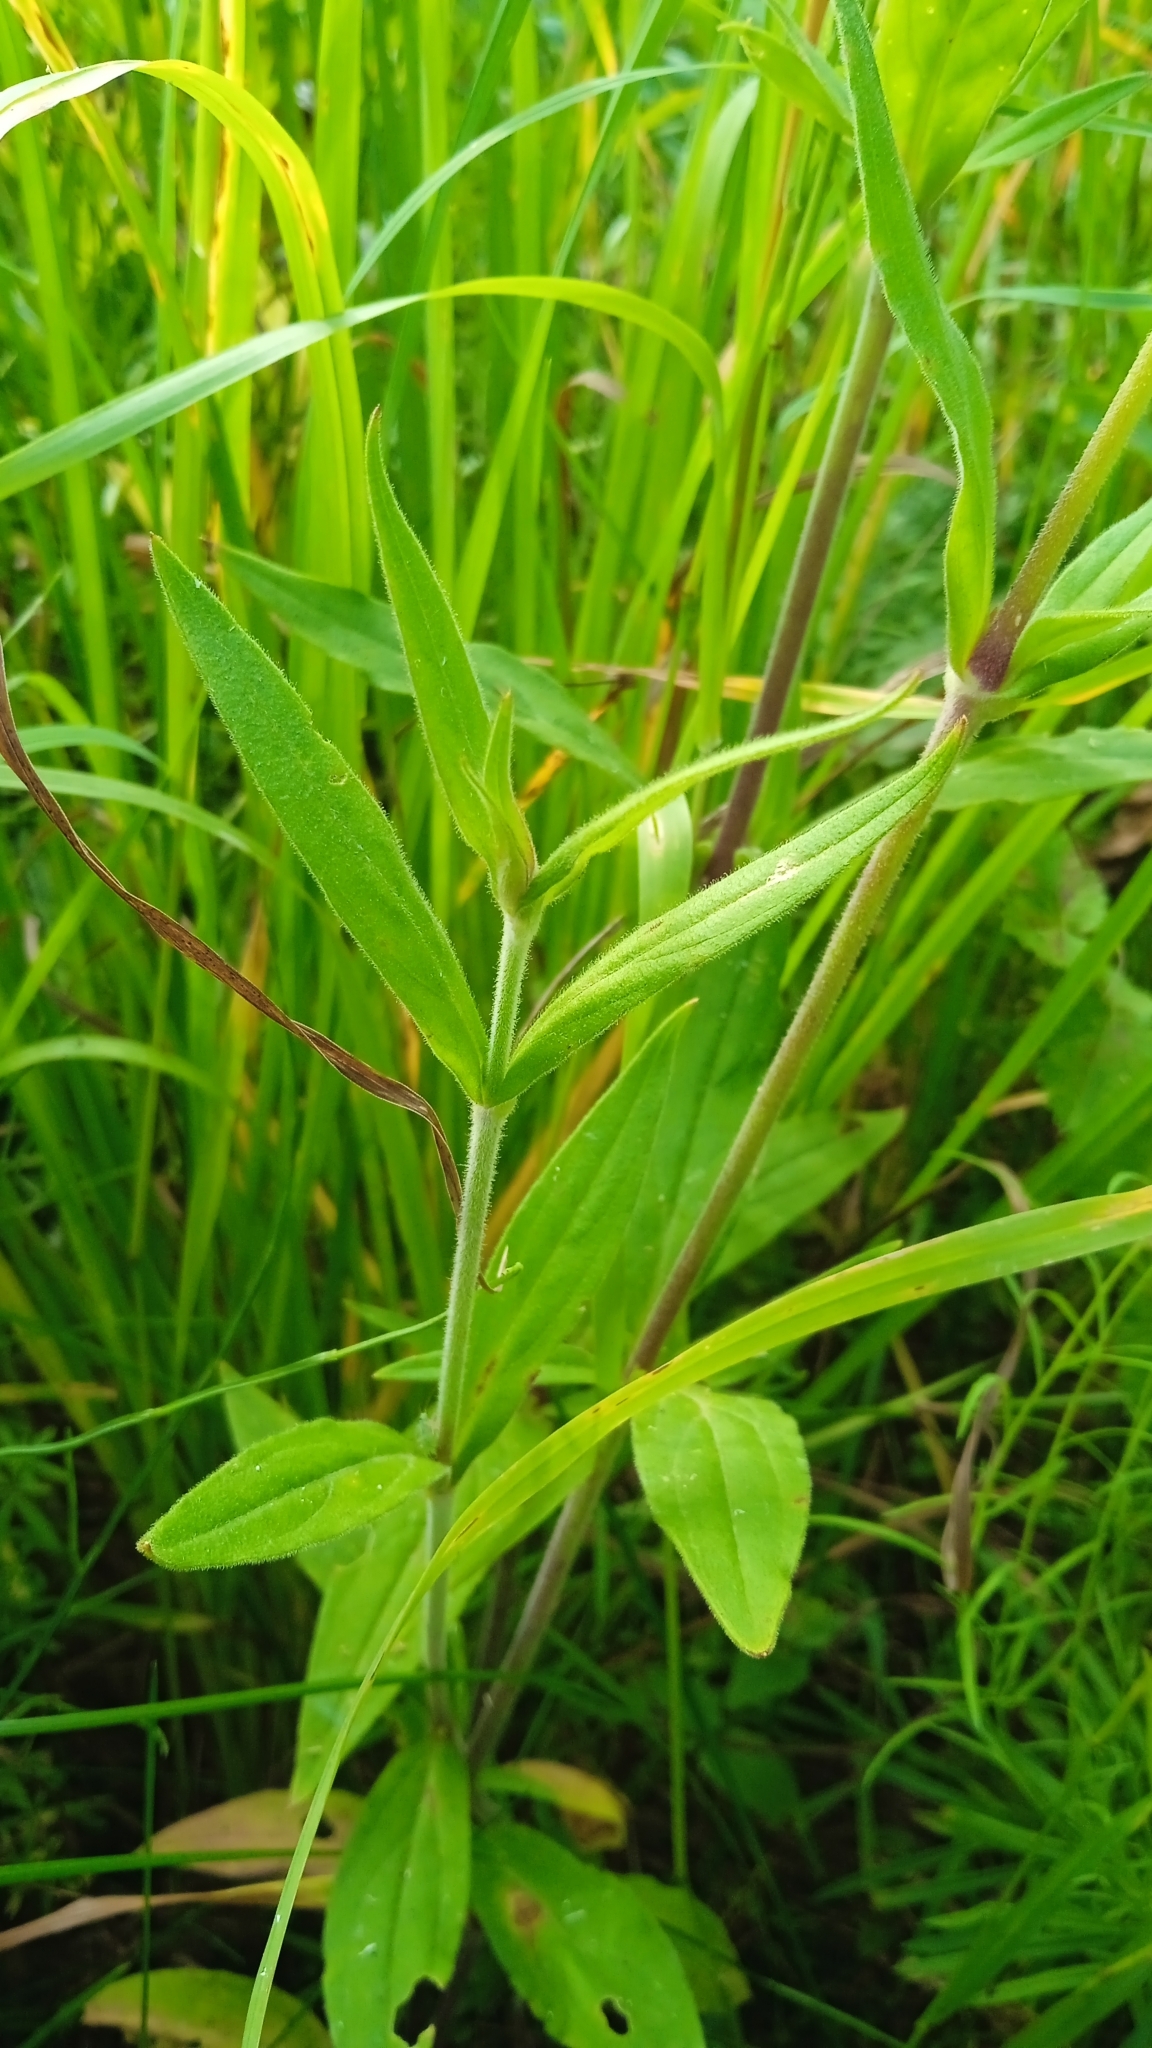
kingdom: Plantae
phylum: Tracheophyta
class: Magnoliopsida
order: Caryophyllales
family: Caryophyllaceae
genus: Silene
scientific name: Silene latifolia
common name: White campion
